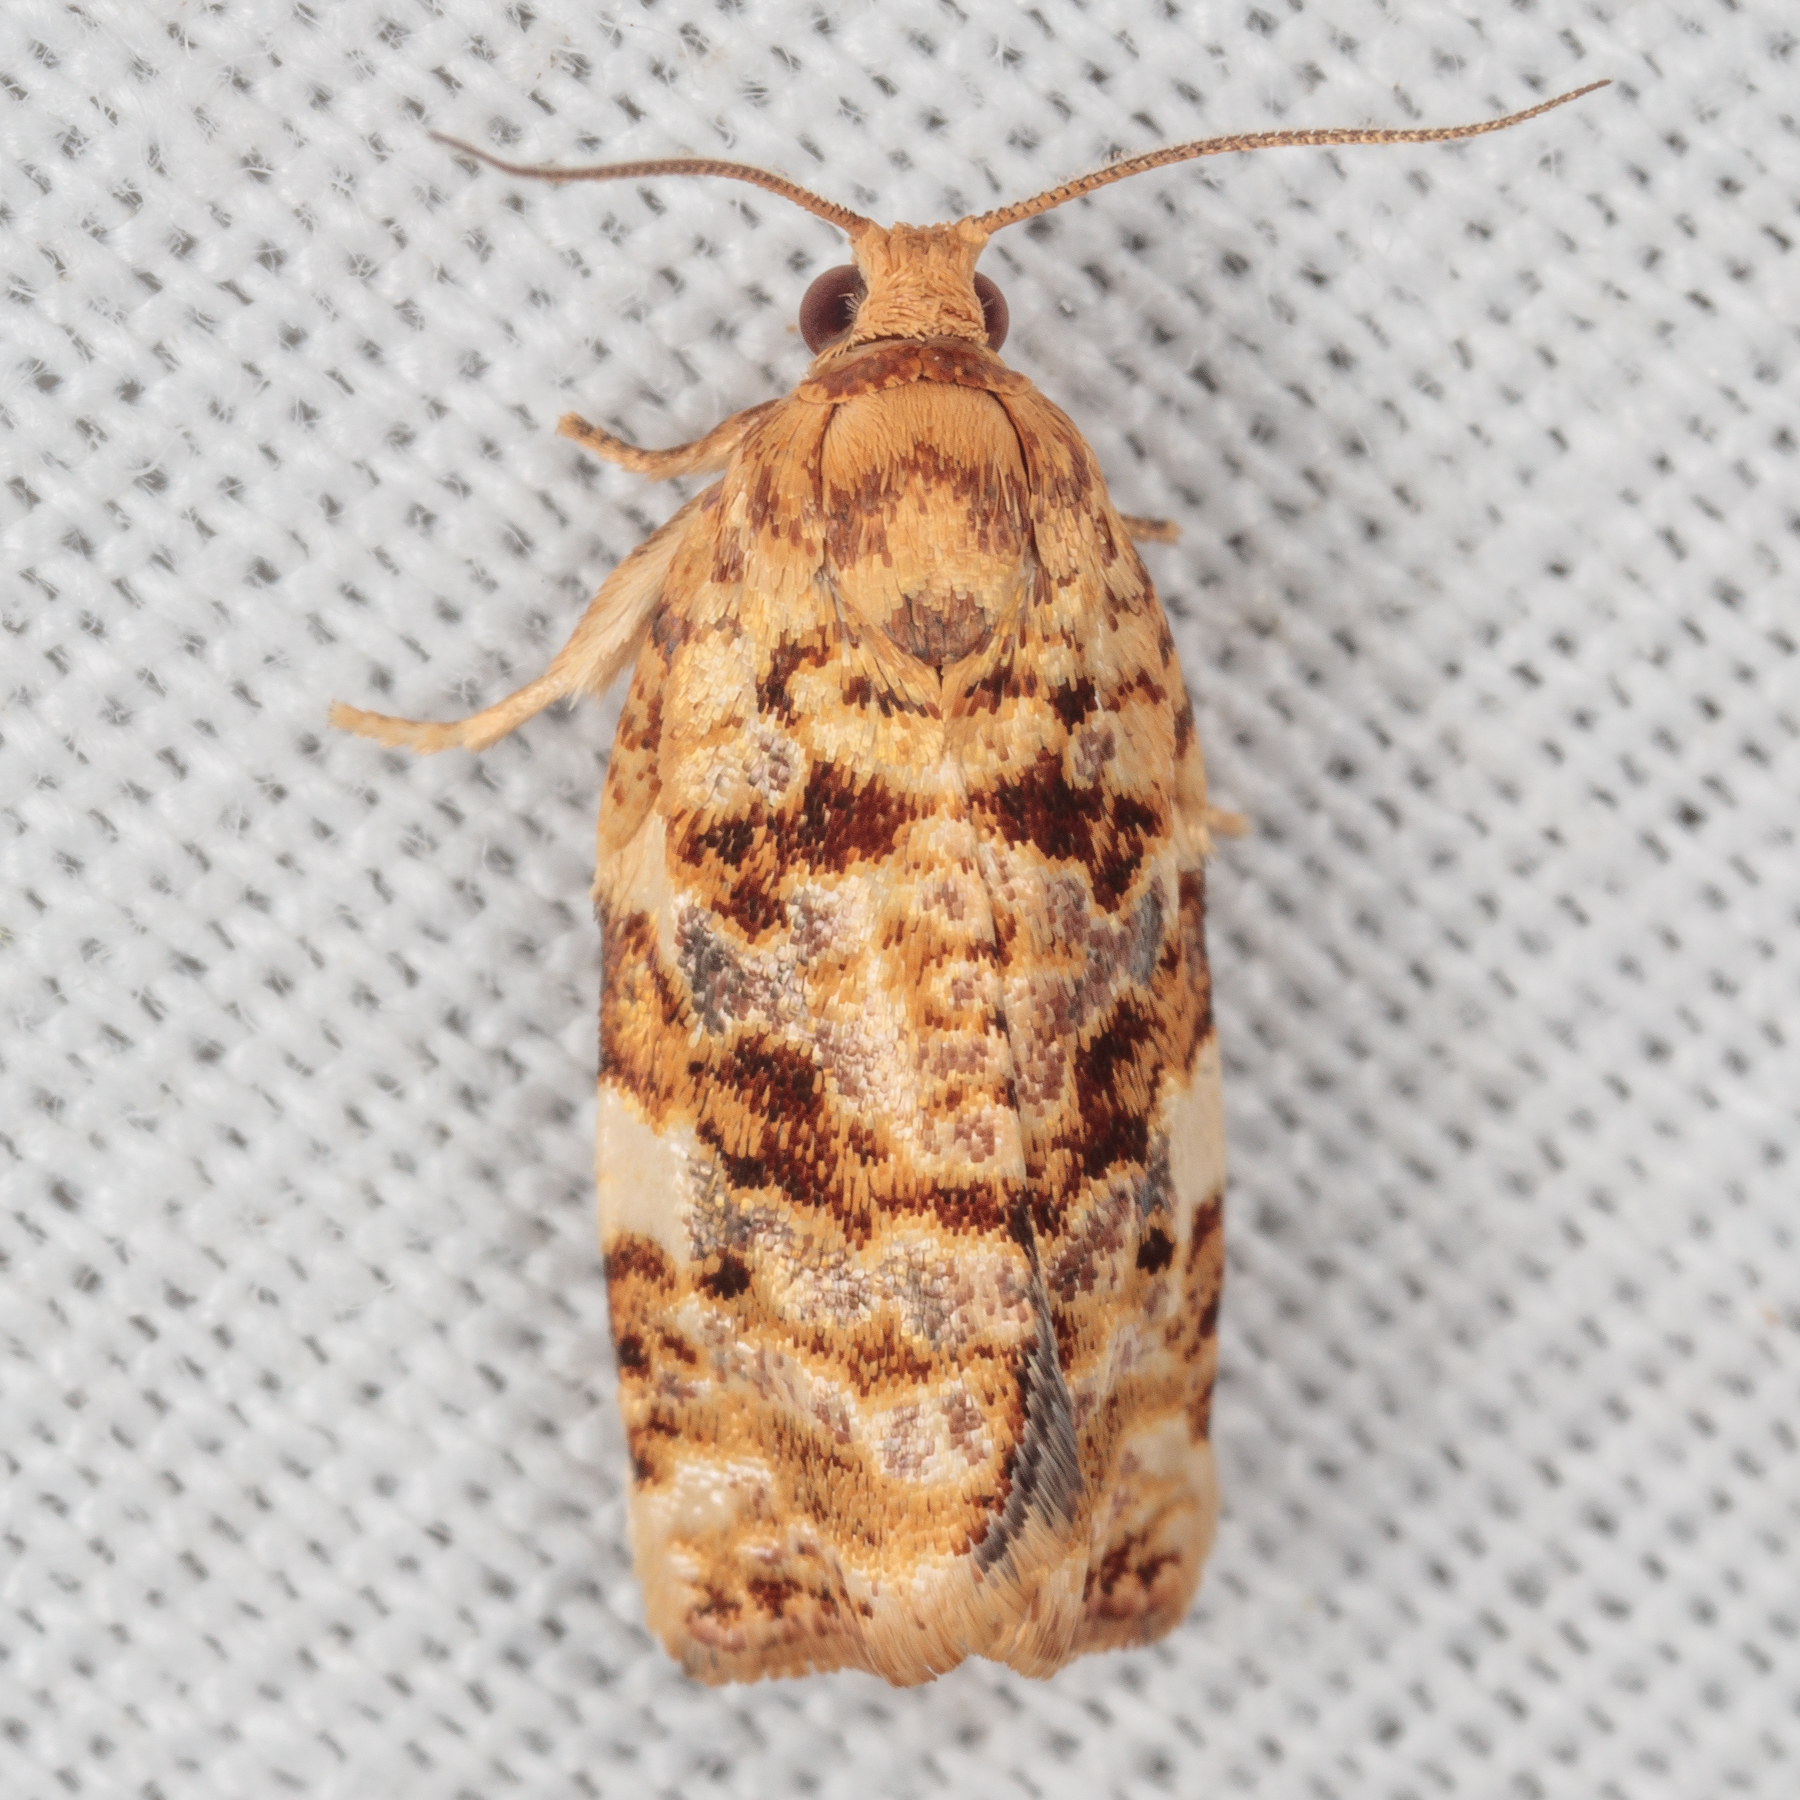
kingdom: Animalia
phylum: Arthropoda
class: Insecta
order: Lepidoptera
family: Tortricidae
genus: Archips
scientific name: Archips argyrospila
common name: Fruit-tree leafroller moth
